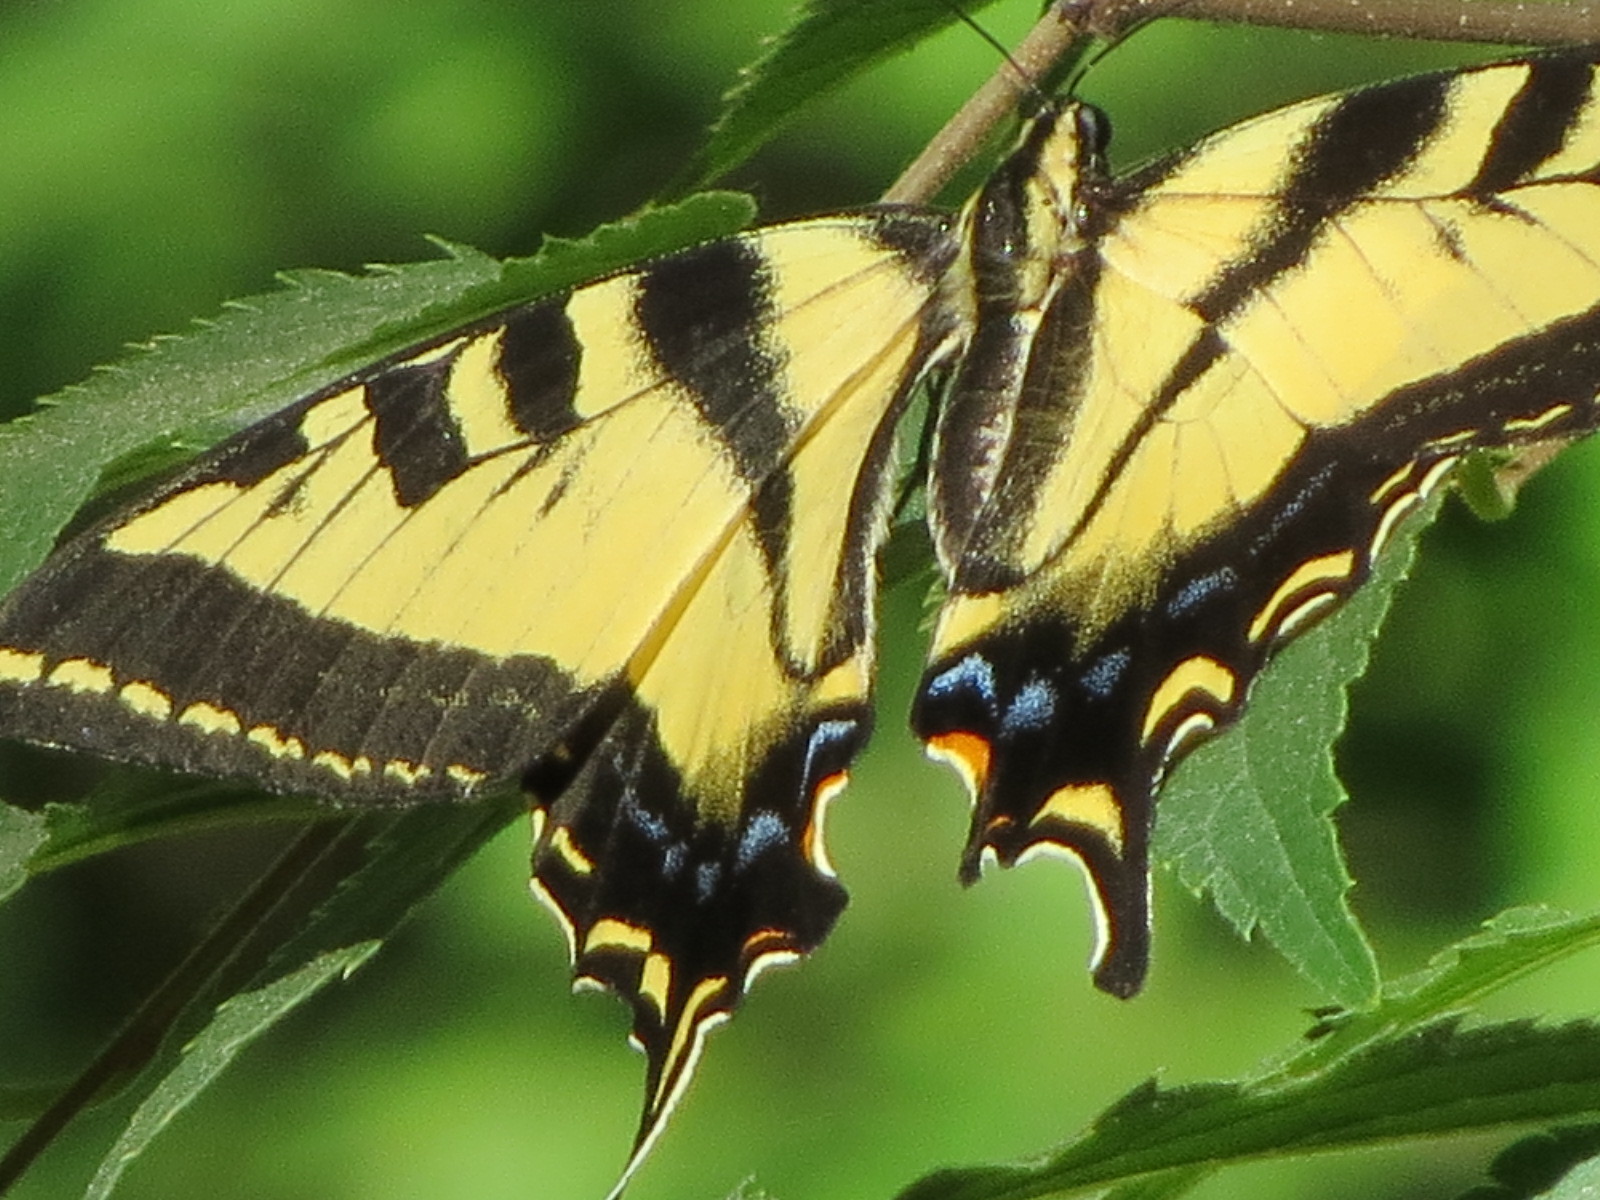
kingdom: Animalia
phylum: Arthropoda
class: Insecta
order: Lepidoptera
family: Papilionidae
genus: Papilio
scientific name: Papilio rutulus
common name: Western tiger swallowtail
